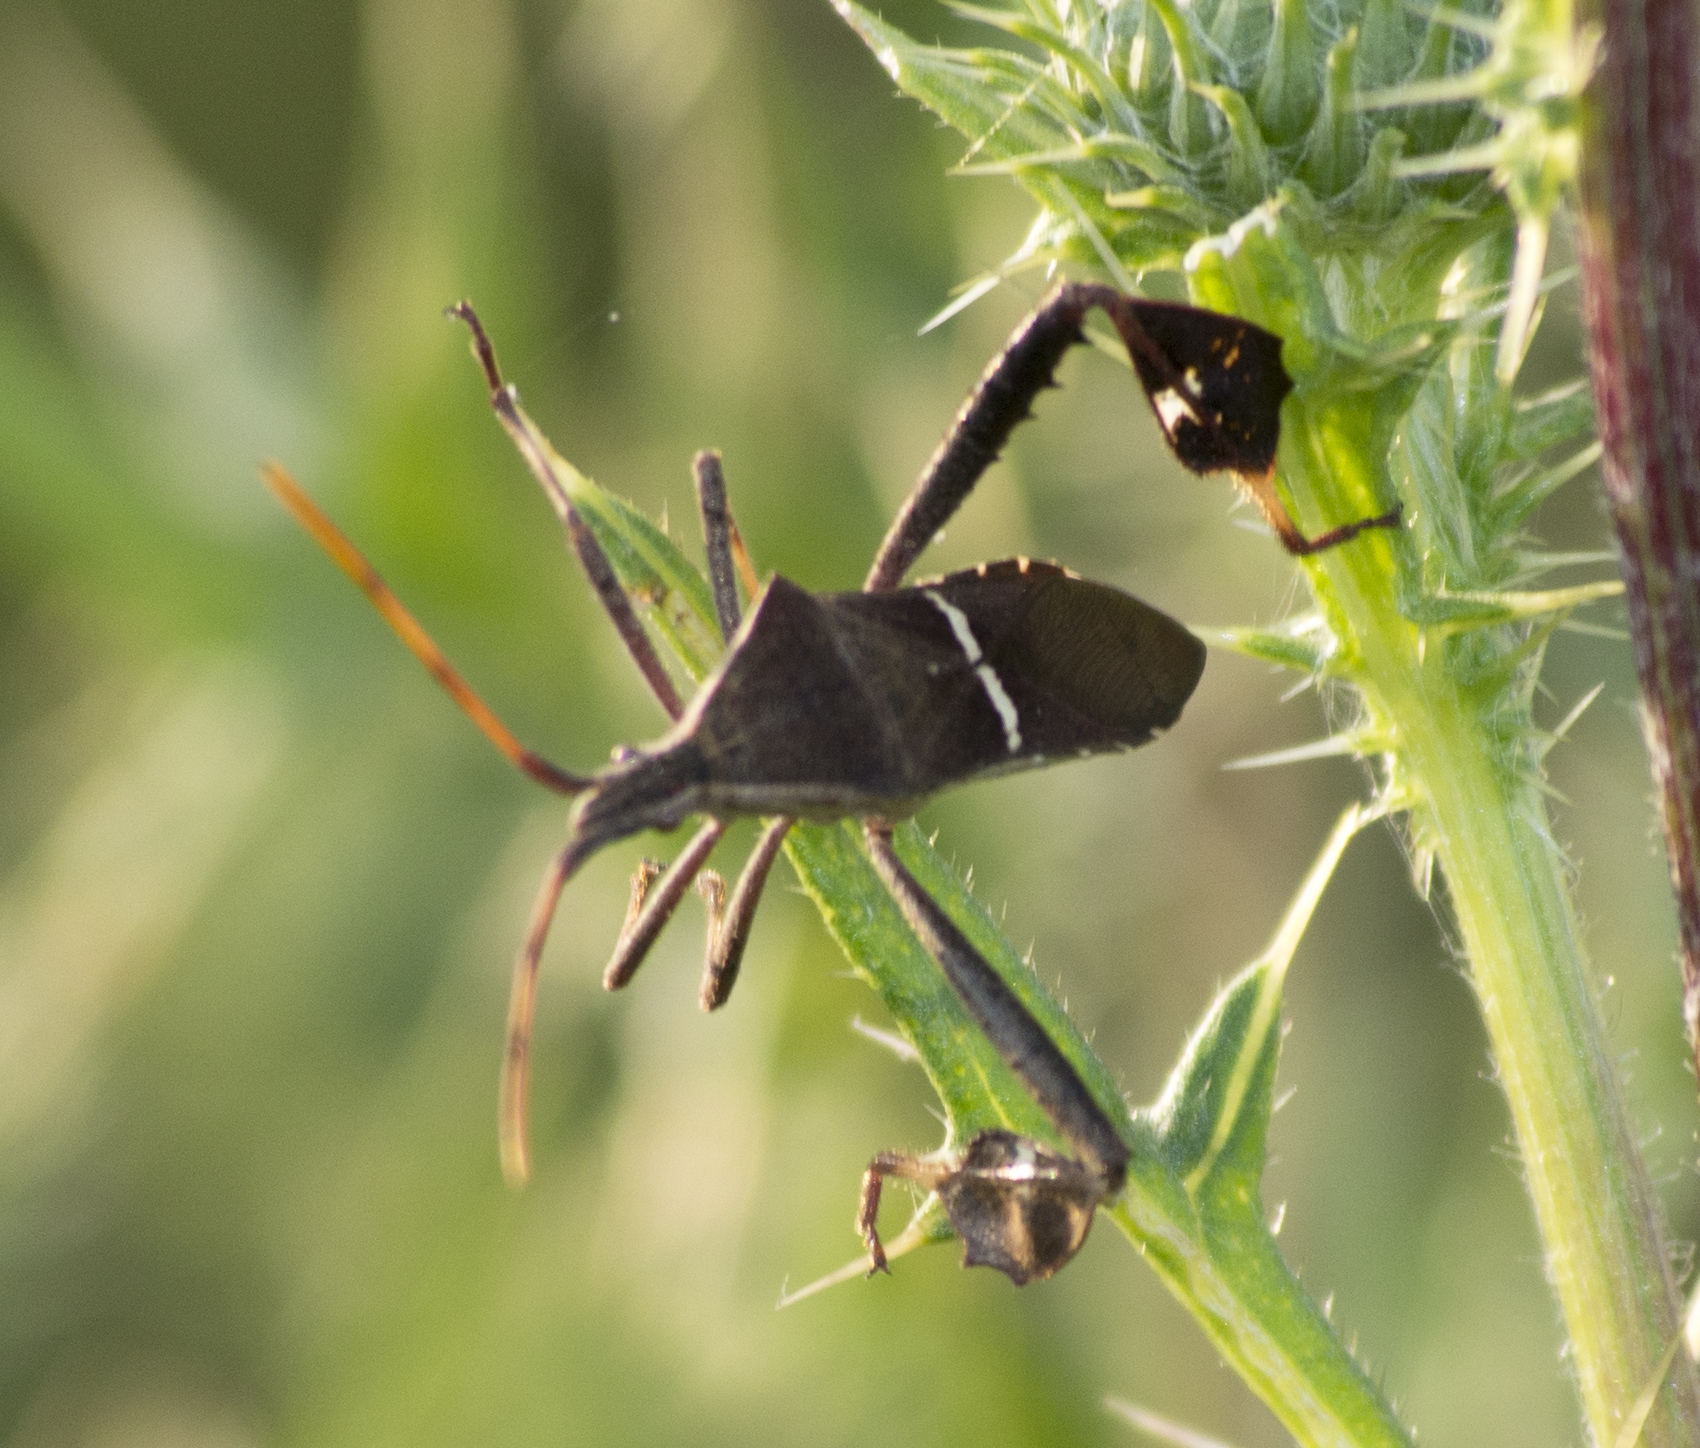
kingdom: Animalia
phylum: Arthropoda
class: Insecta
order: Hemiptera
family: Coreidae
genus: Leptoglossus
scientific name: Leptoglossus phyllopus
